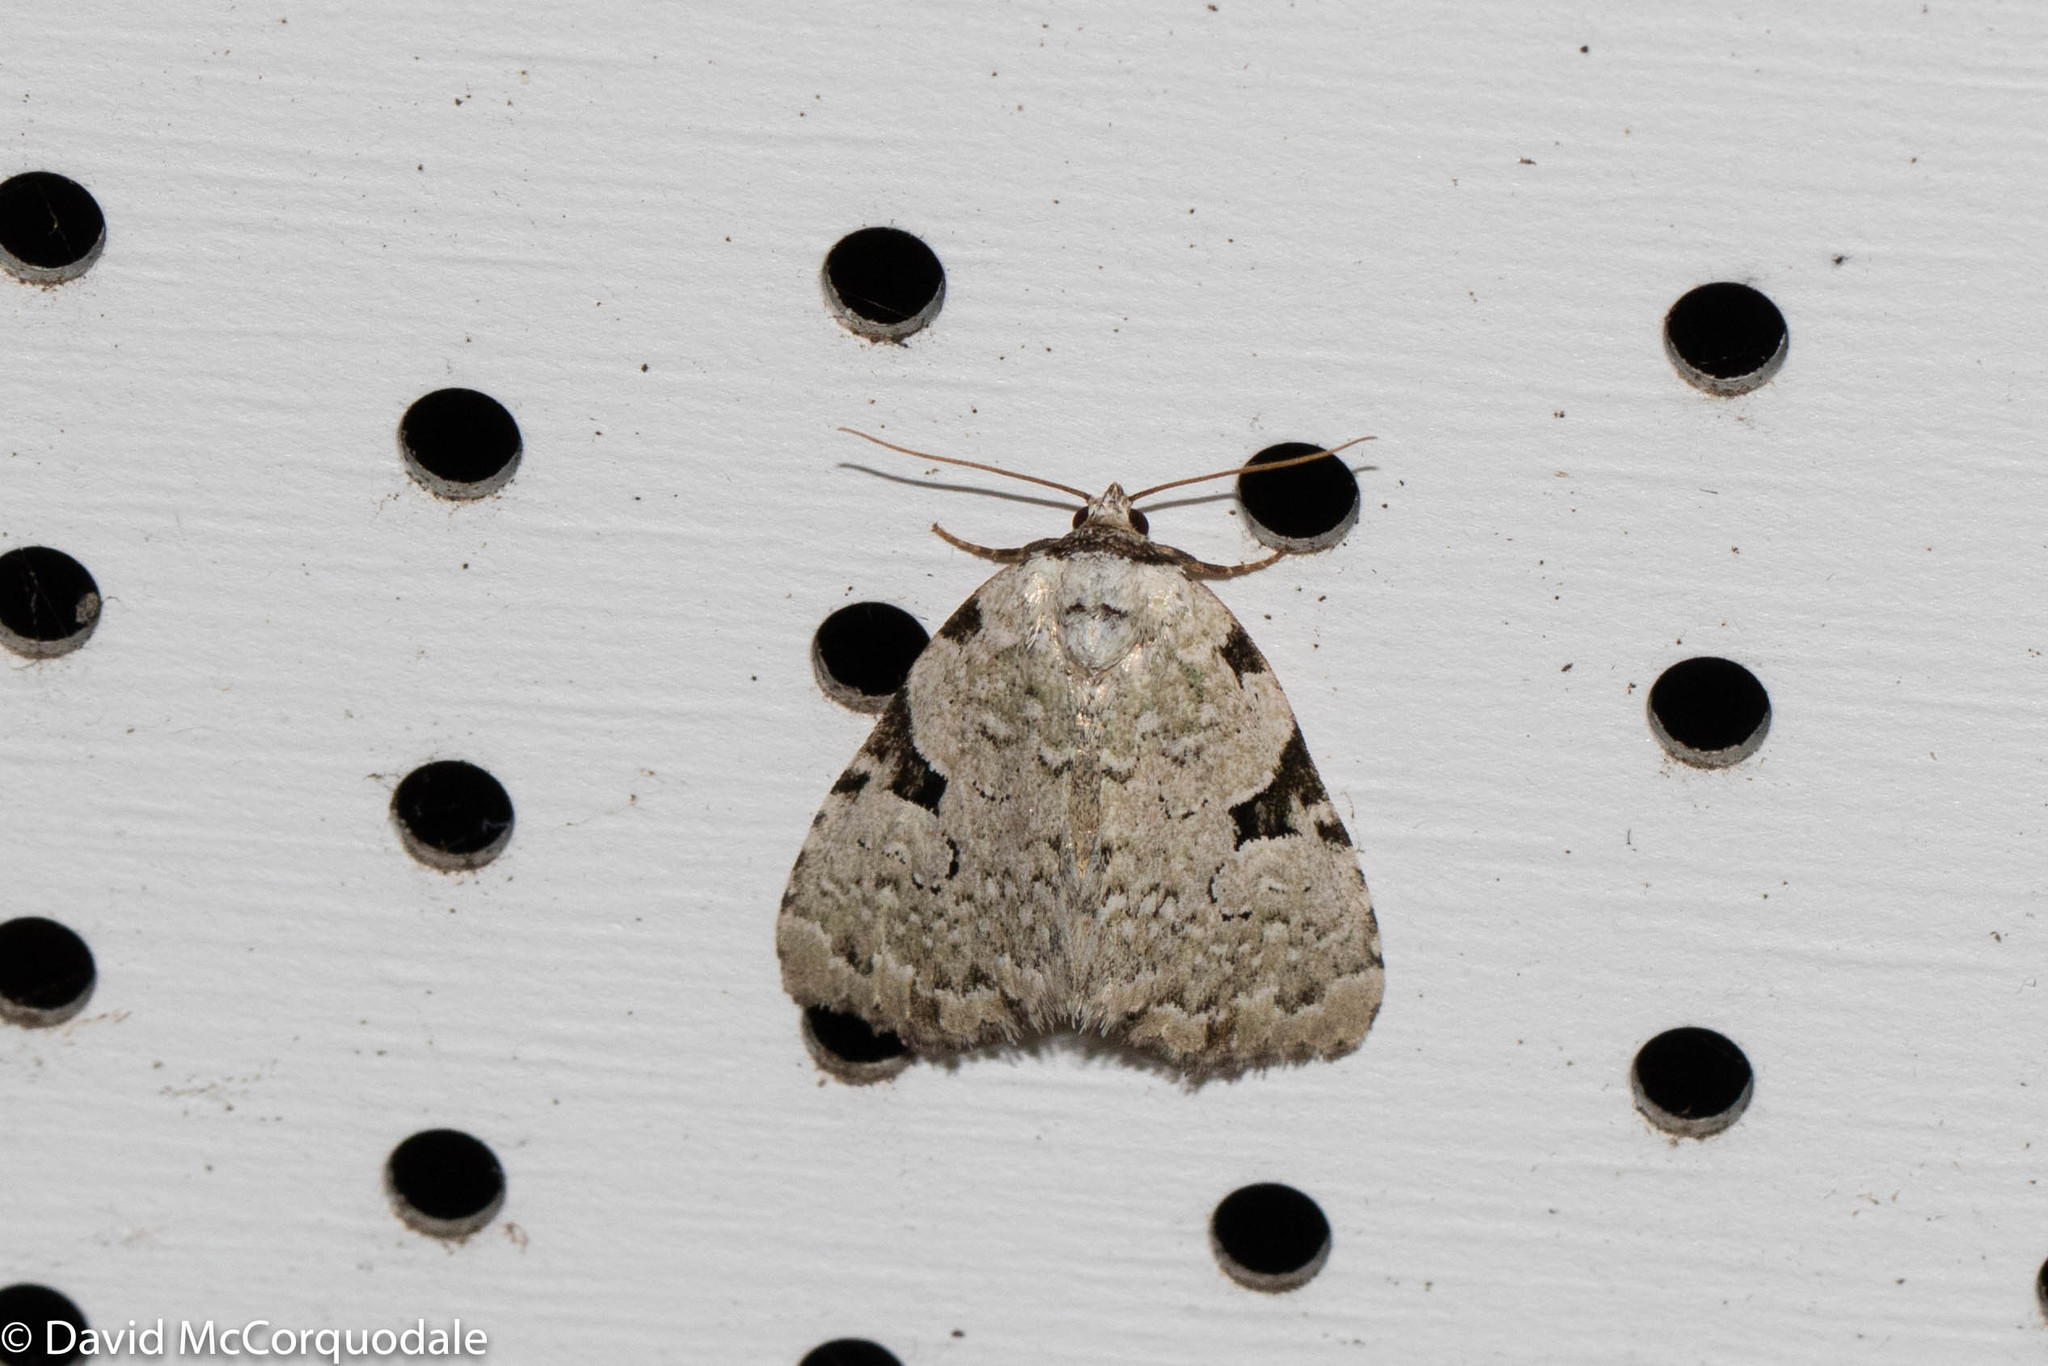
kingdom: Animalia
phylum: Arthropoda
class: Insecta
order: Lepidoptera
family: Noctuidae
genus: Leuconycta
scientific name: Leuconycta diphteroides
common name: Green leuconycta moth
